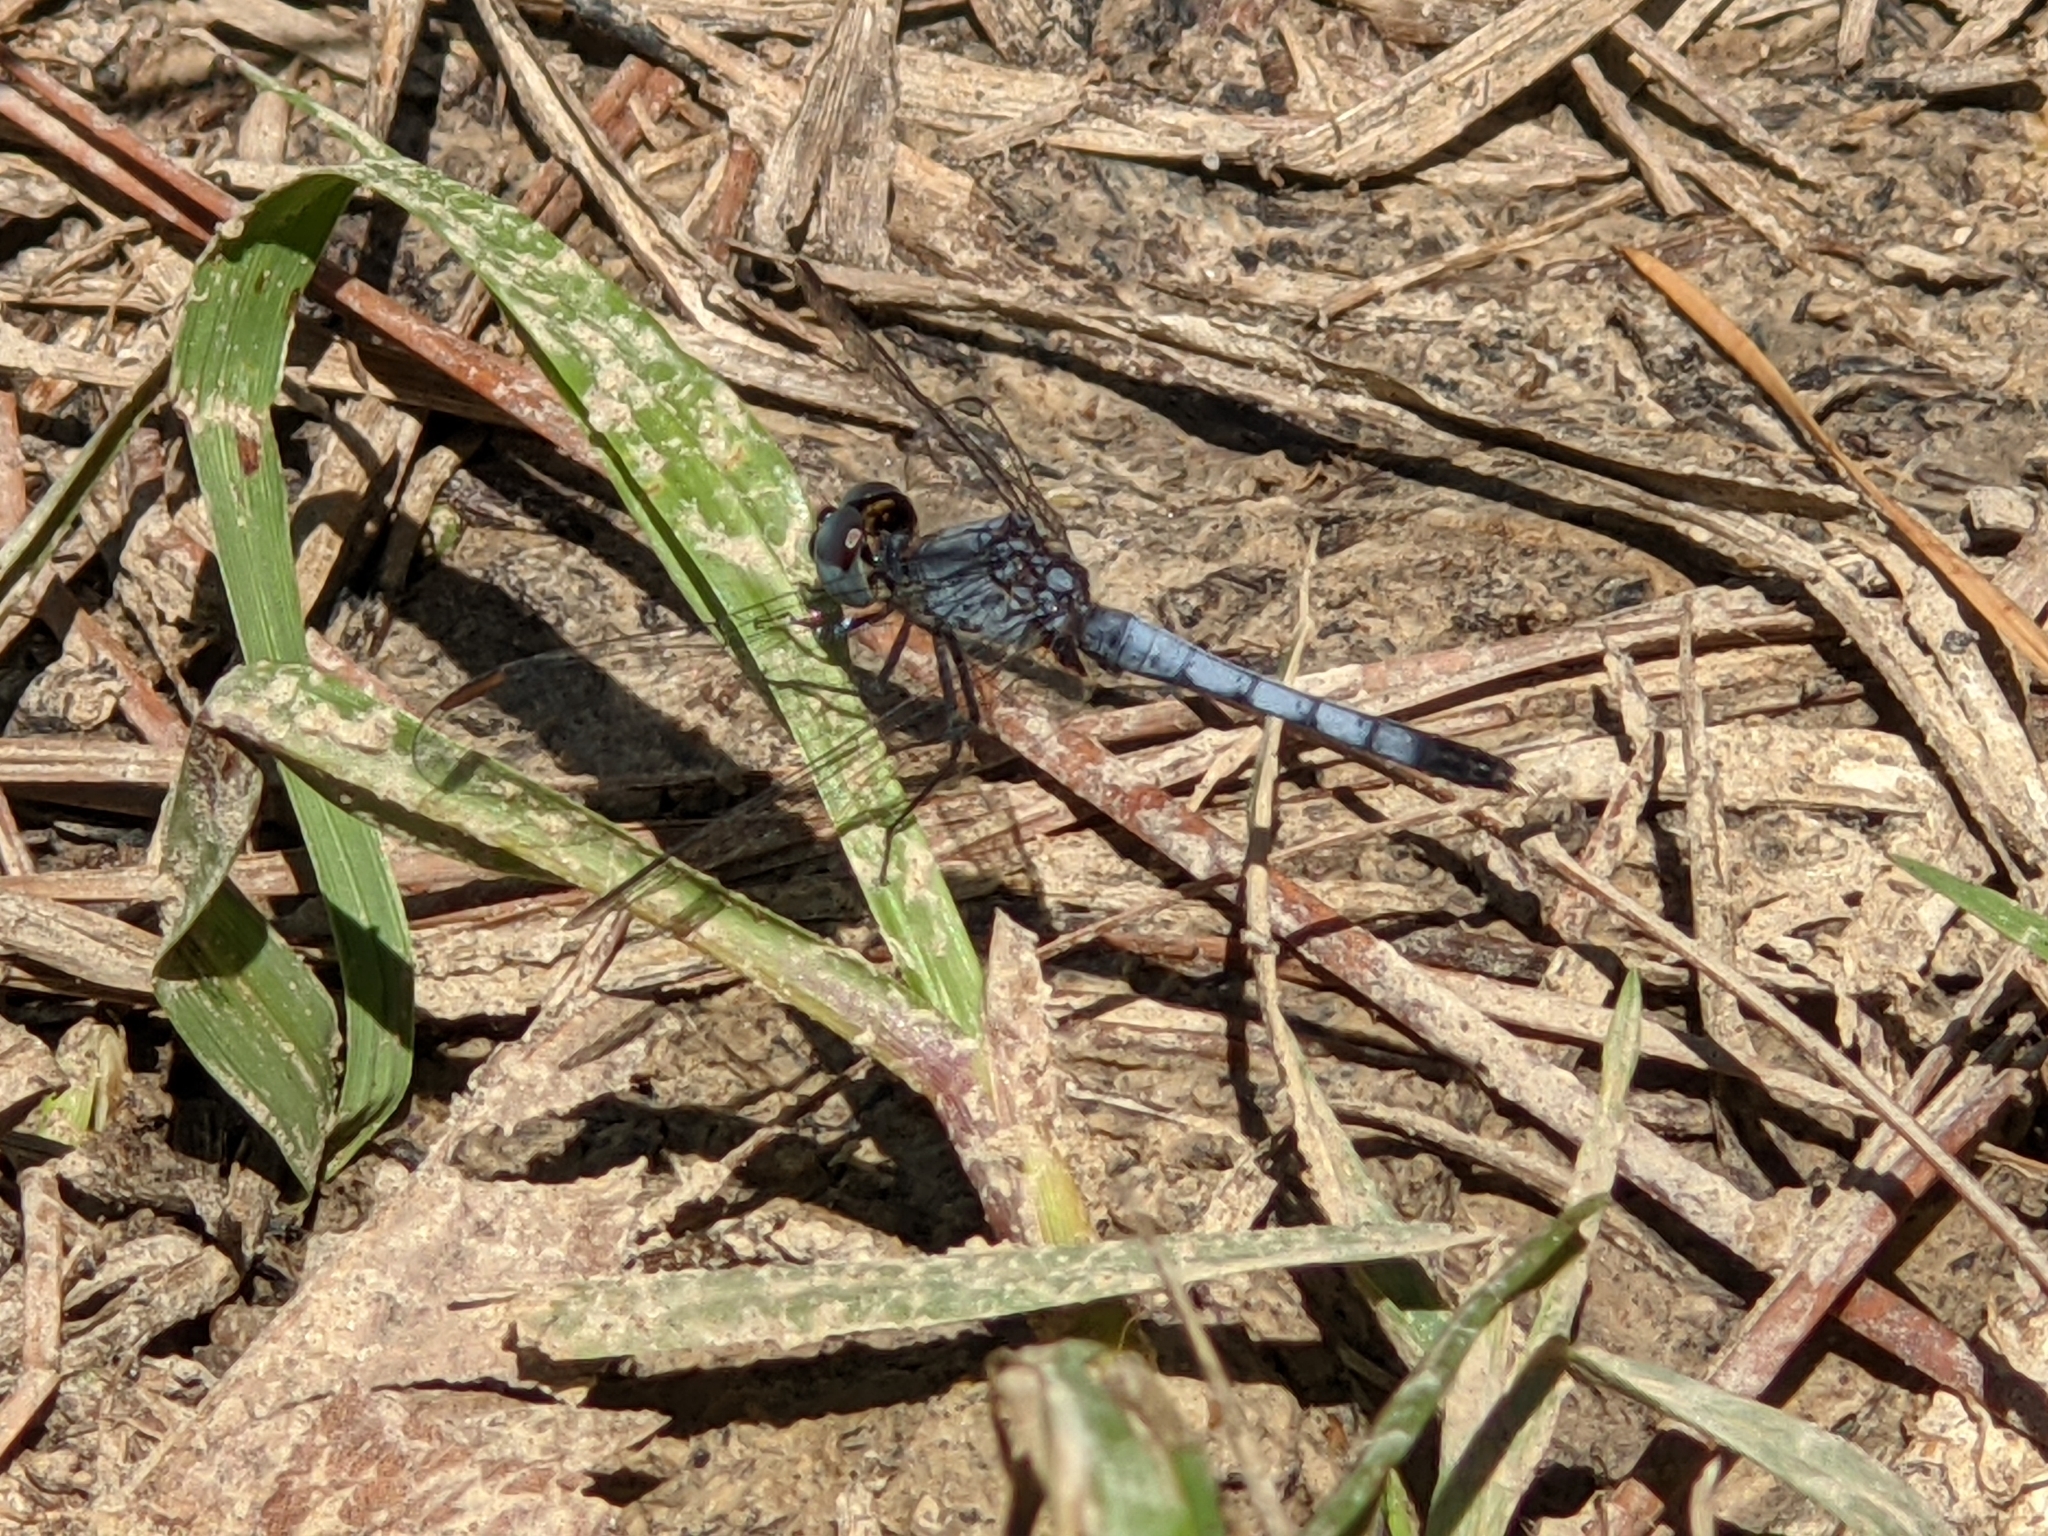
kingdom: Animalia
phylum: Arthropoda
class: Insecta
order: Odonata
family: Libellulidae
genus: Erythrodiplax
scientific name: Erythrodiplax minuscula
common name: Little blue dragonlet
